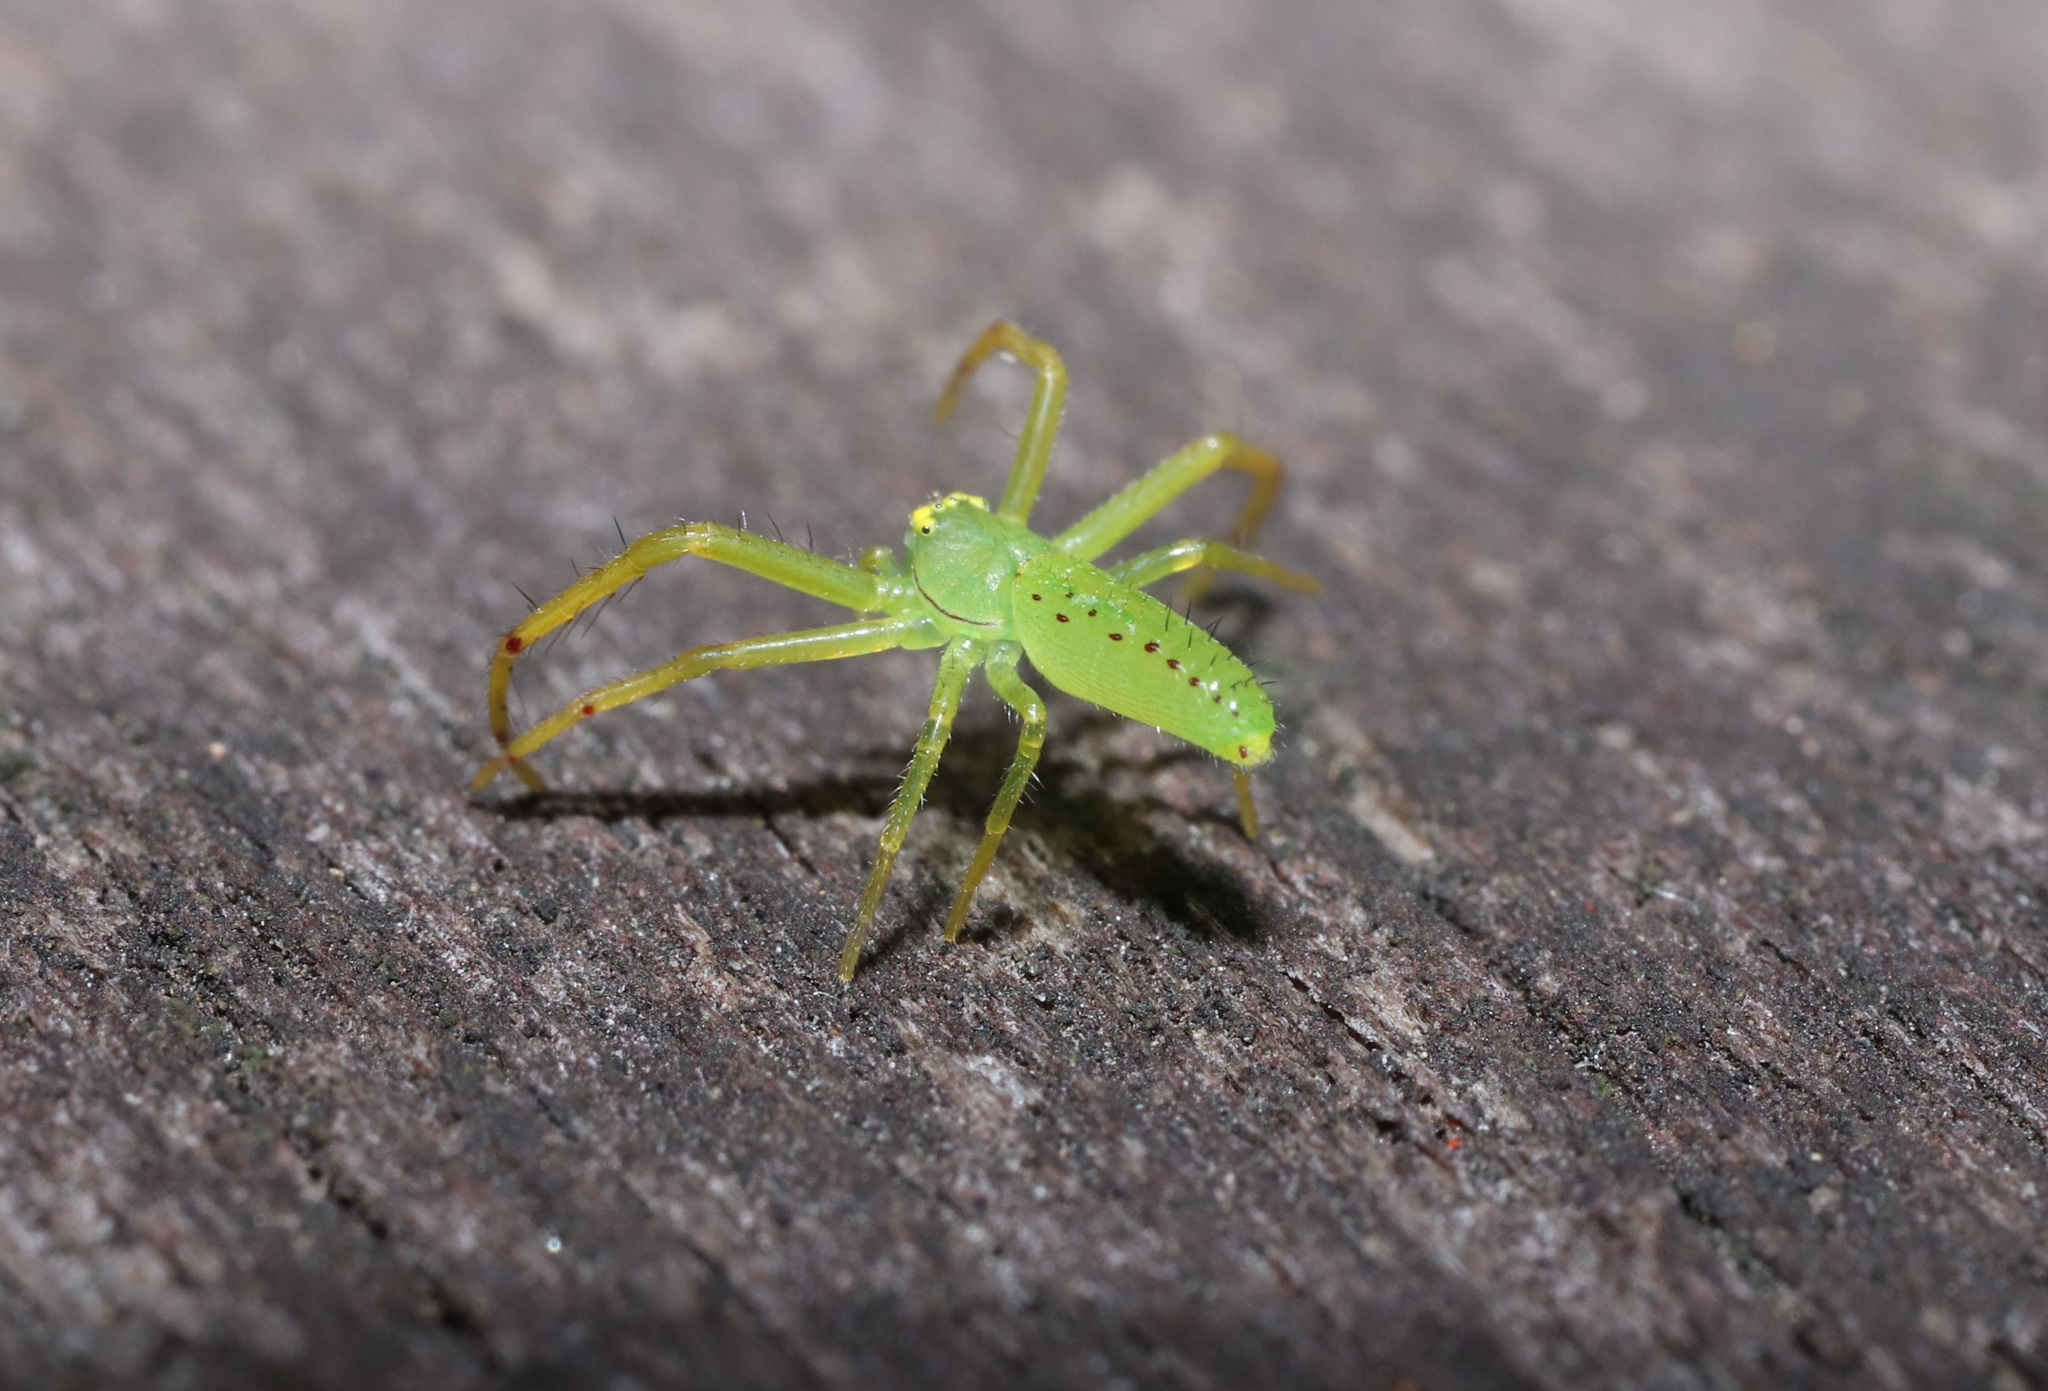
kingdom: Animalia
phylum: Arthropoda
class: Arachnida
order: Araneae
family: Thomisidae
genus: Oxytate
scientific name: Oxytate striatipes
